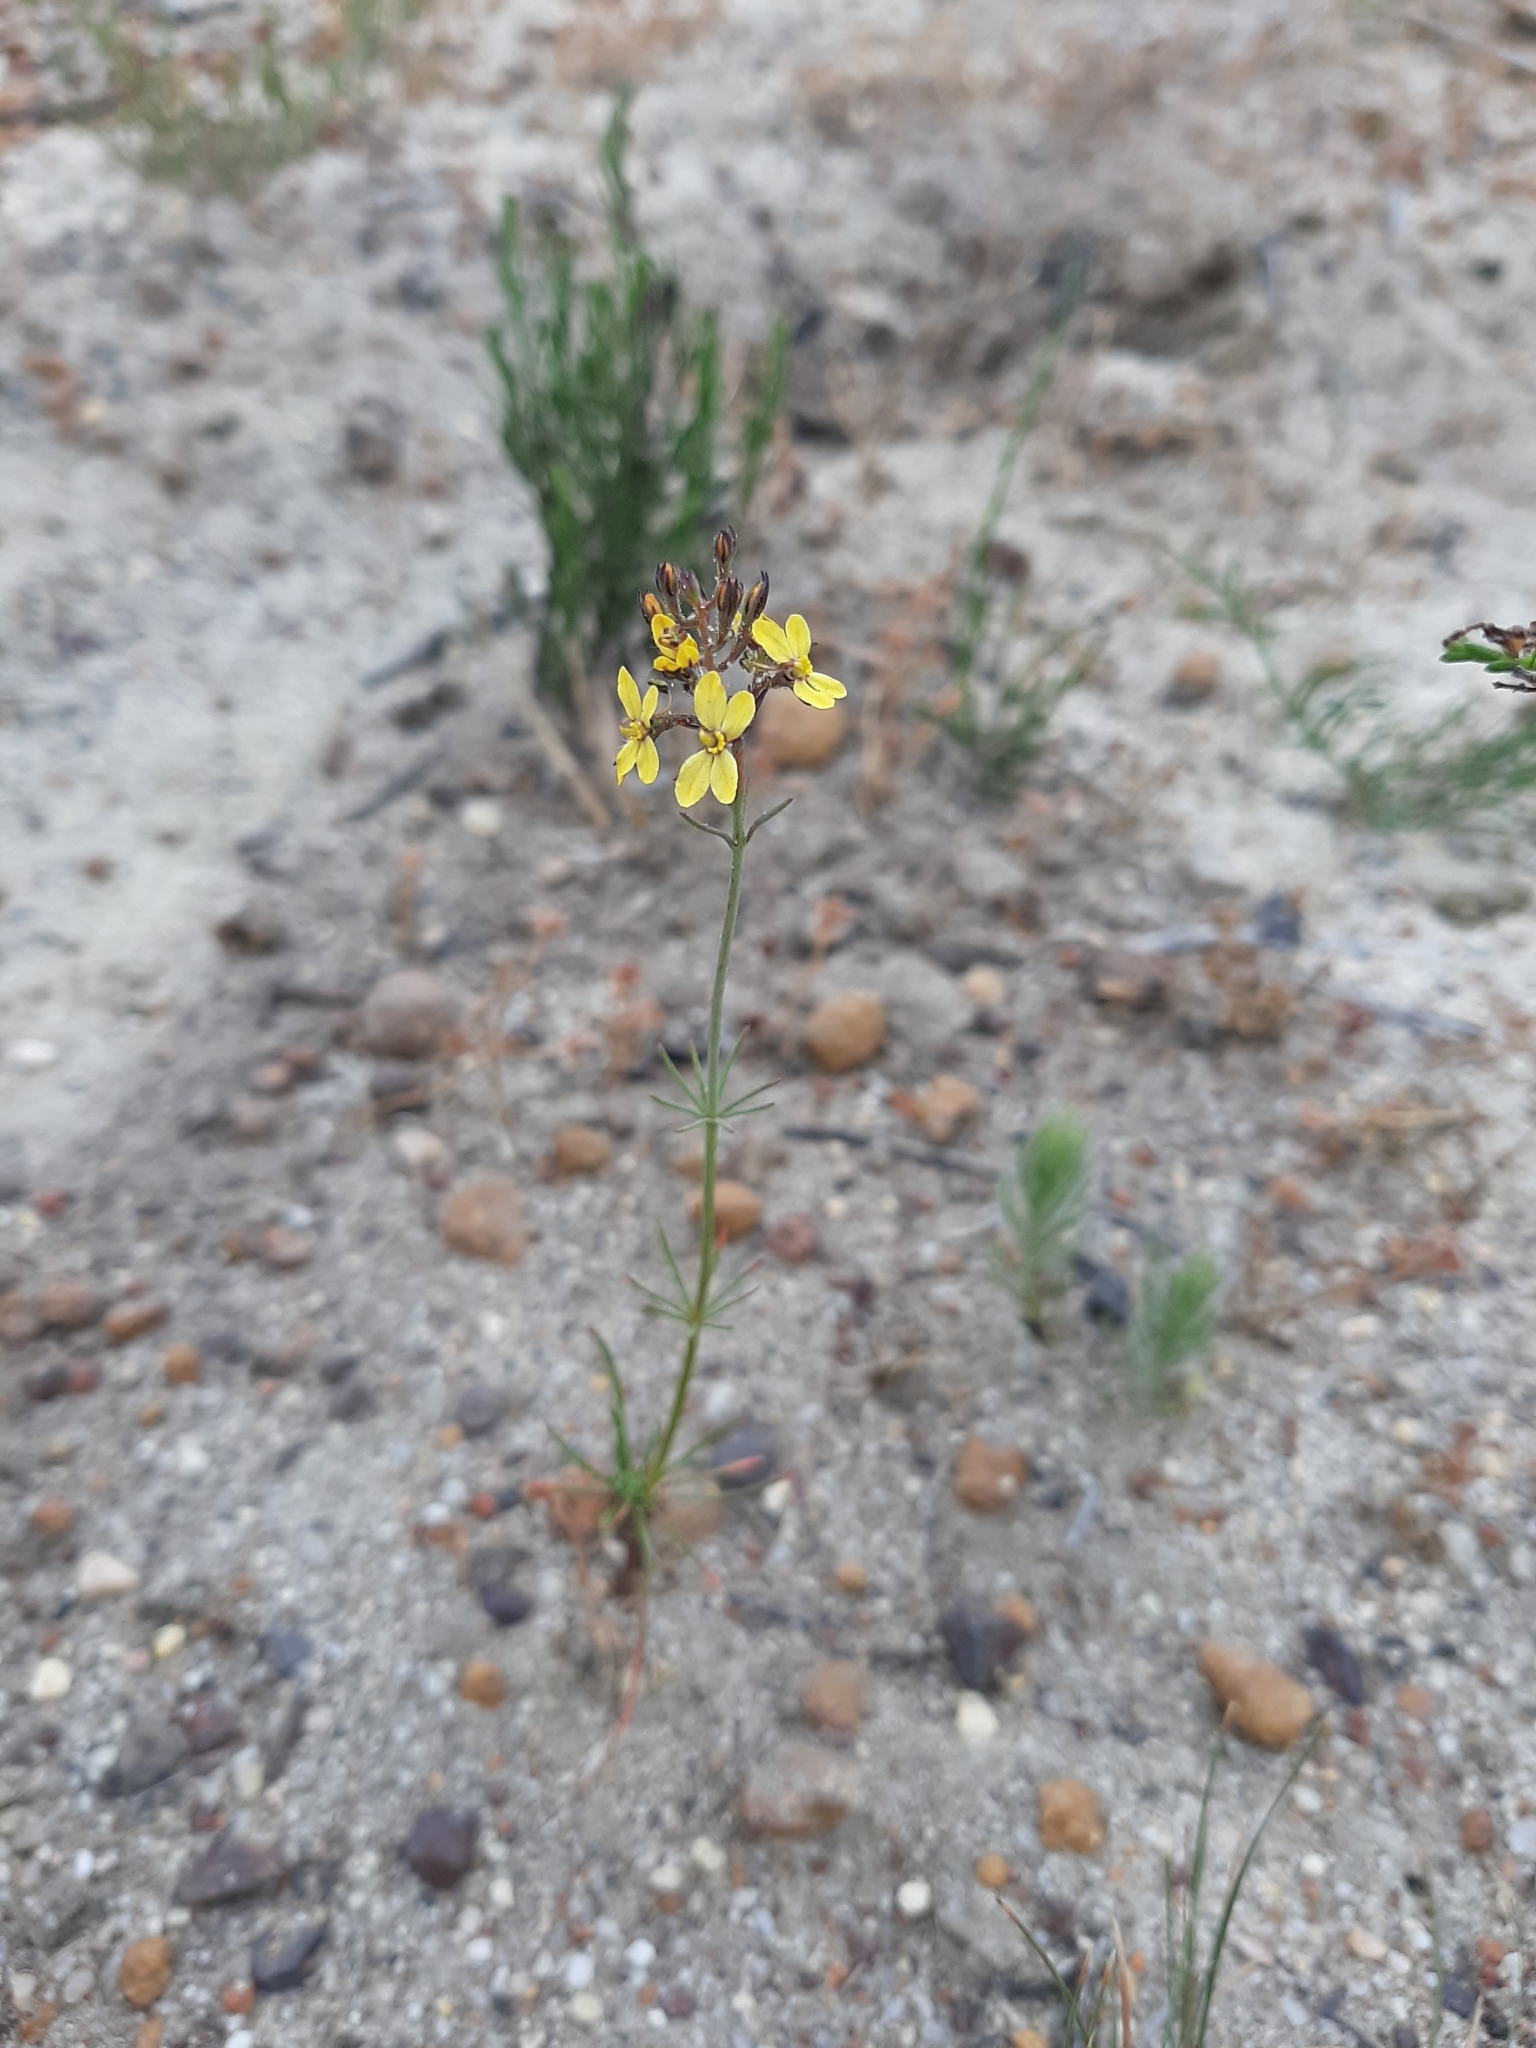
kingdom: Plantae
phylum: Tracheophyta
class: Magnoliopsida
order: Asterales
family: Stylidiaceae
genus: Stylidium
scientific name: Stylidium diuroides
